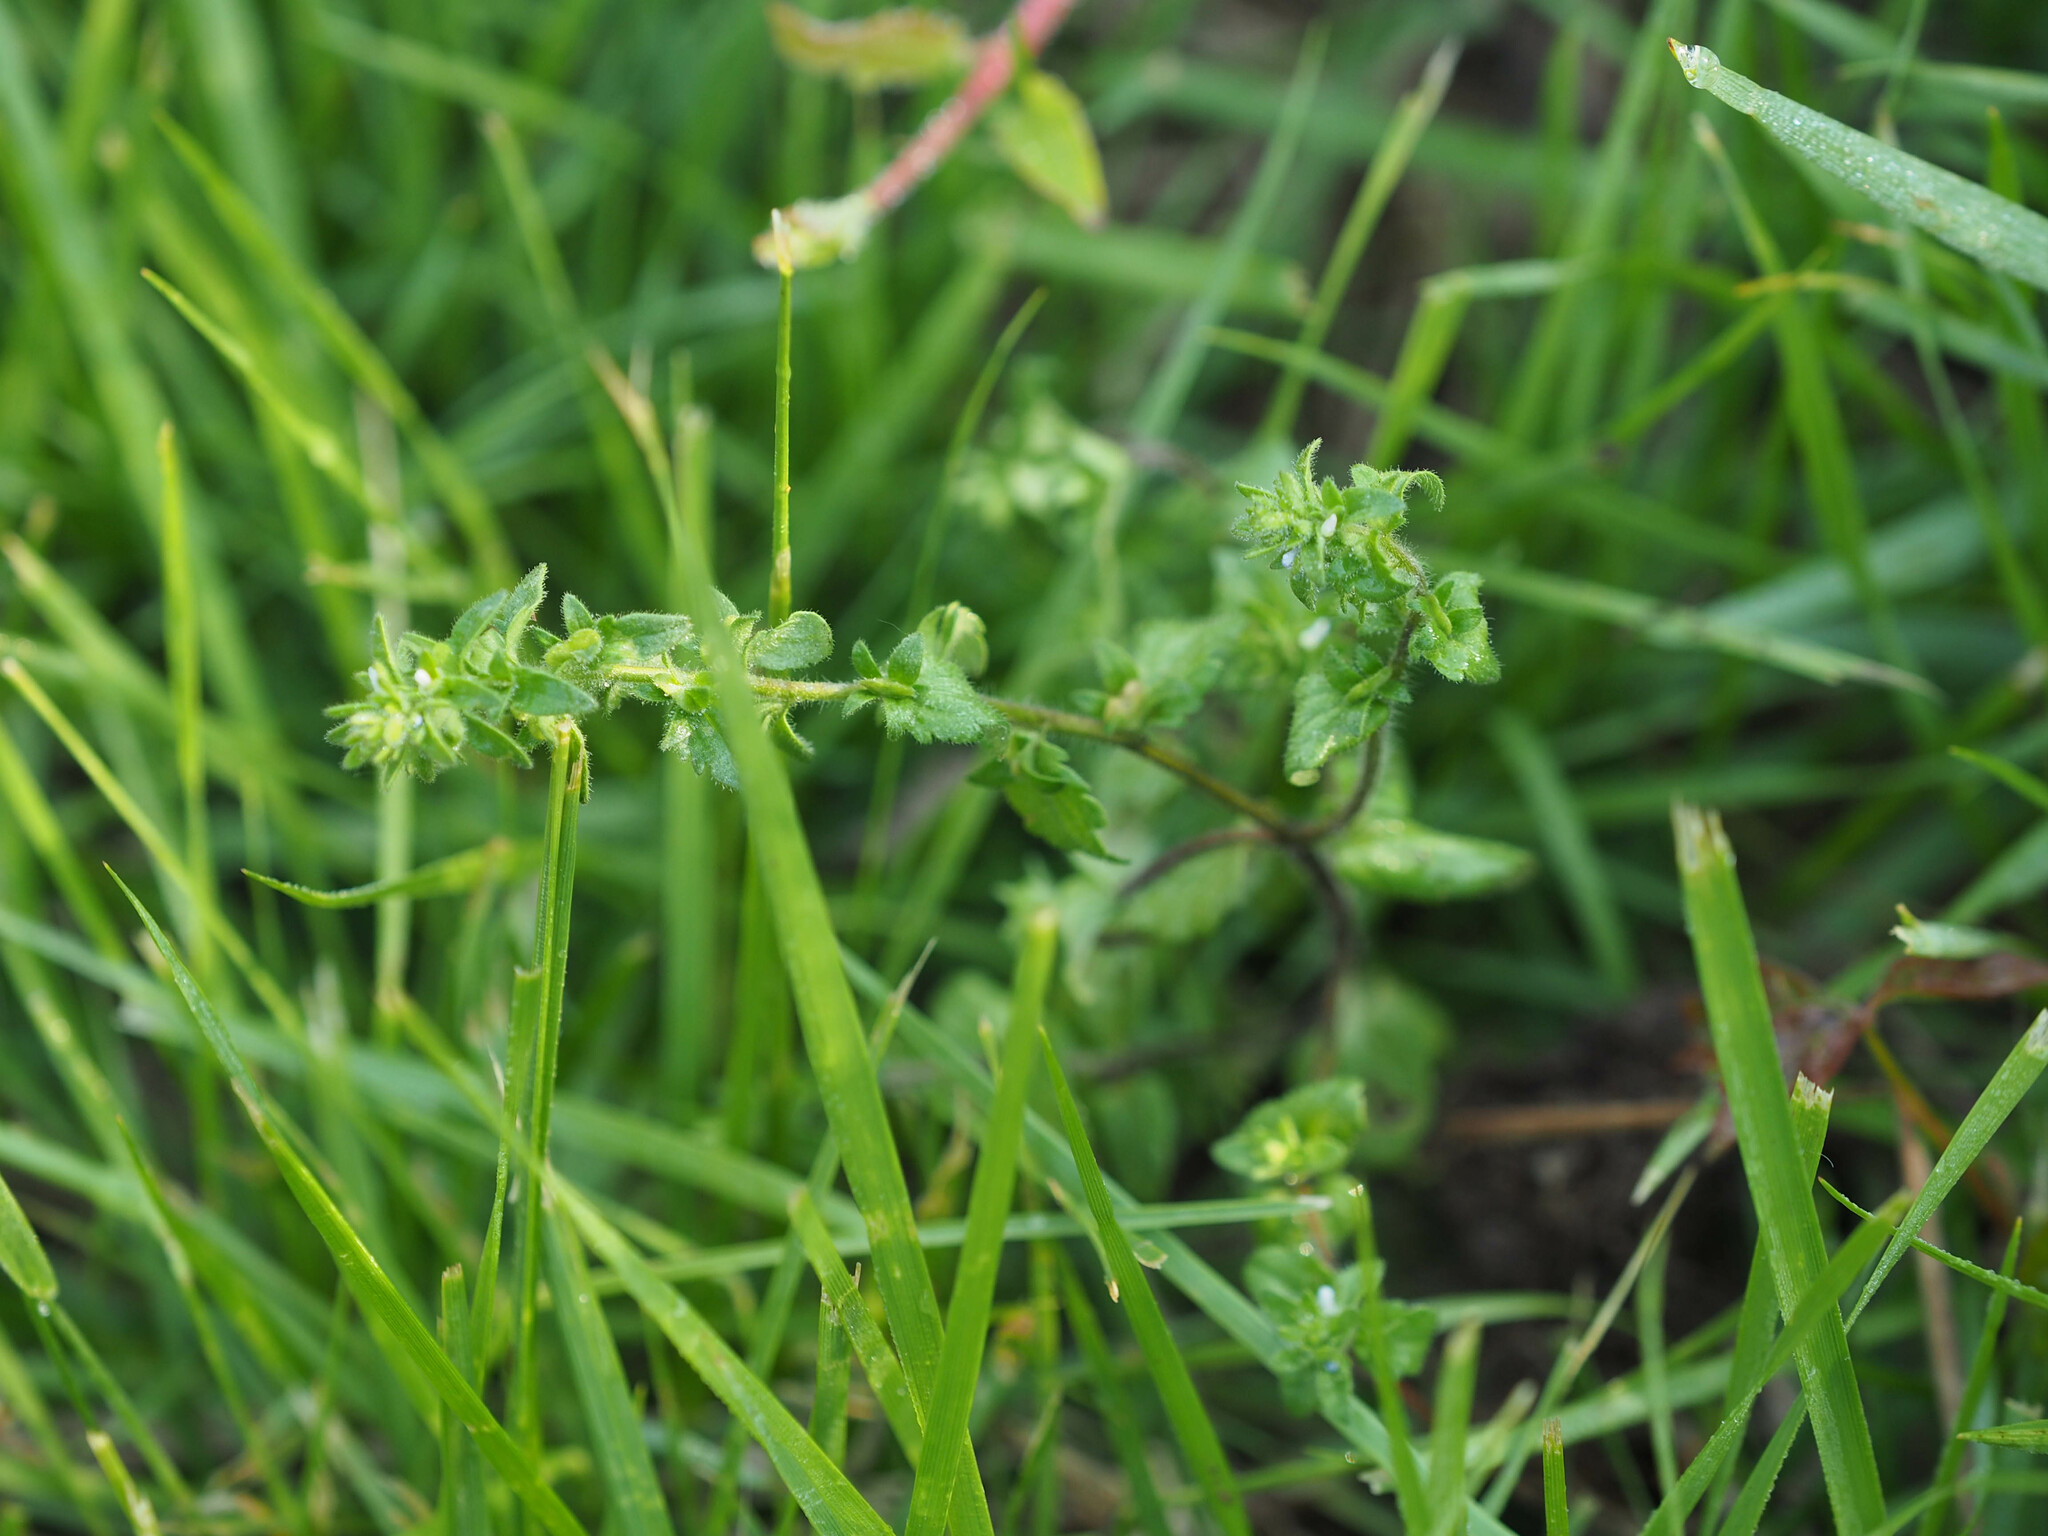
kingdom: Plantae
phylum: Tracheophyta
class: Magnoliopsida
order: Lamiales
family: Plantaginaceae
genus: Veronica
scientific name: Veronica arvensis
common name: Corn speedwell
